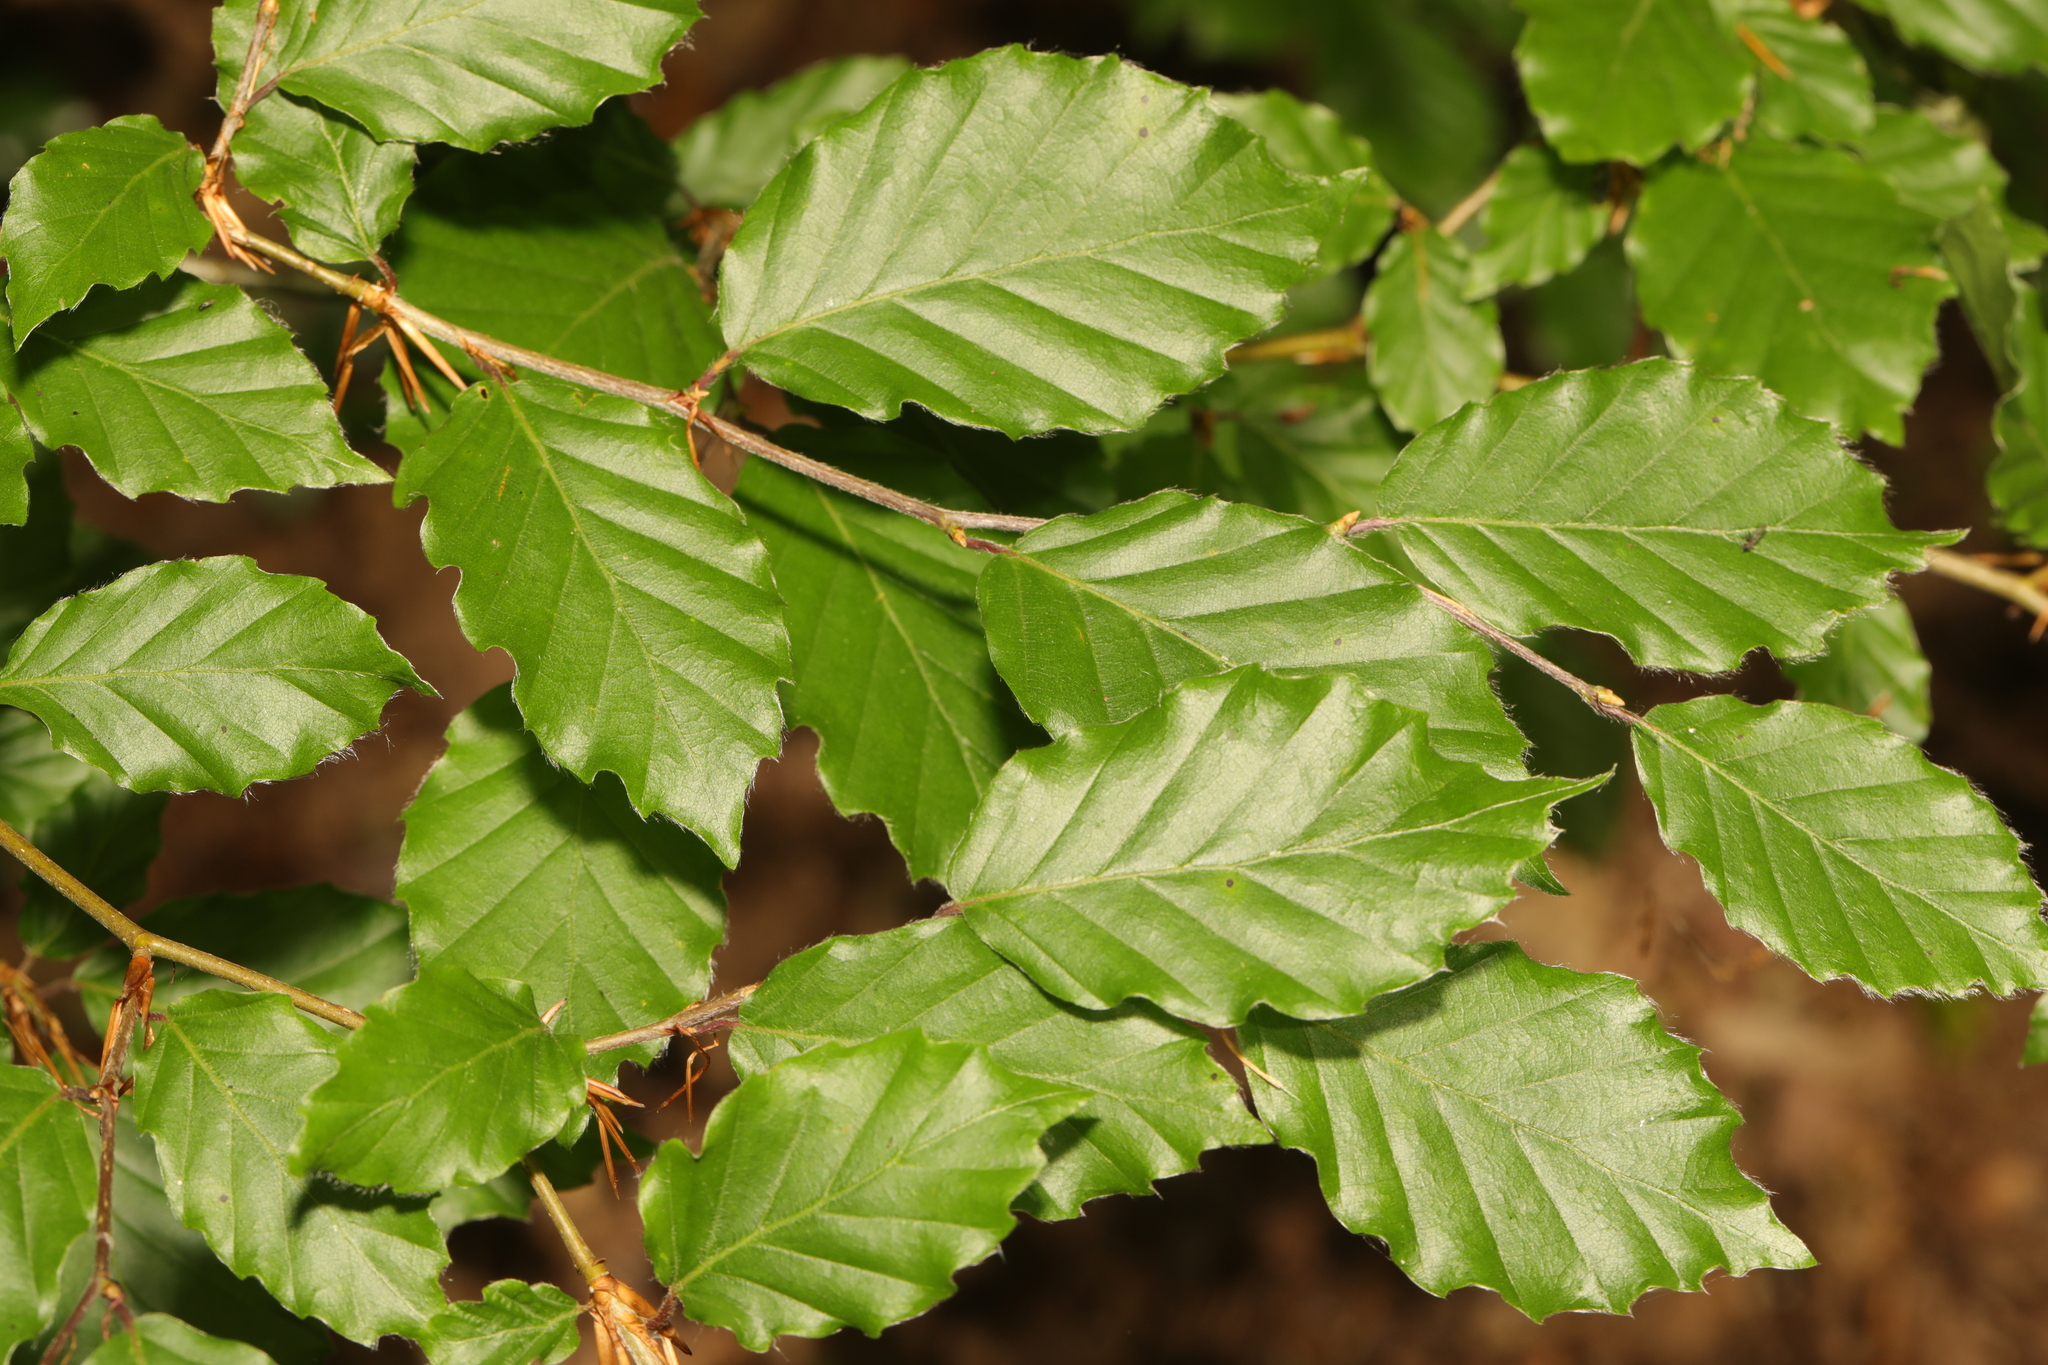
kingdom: Plantae
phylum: Tracheophyta
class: Magnoliopsida
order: Fagales
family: Fagaceae
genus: Fagus
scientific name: Fagus sylvatica
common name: Beech
